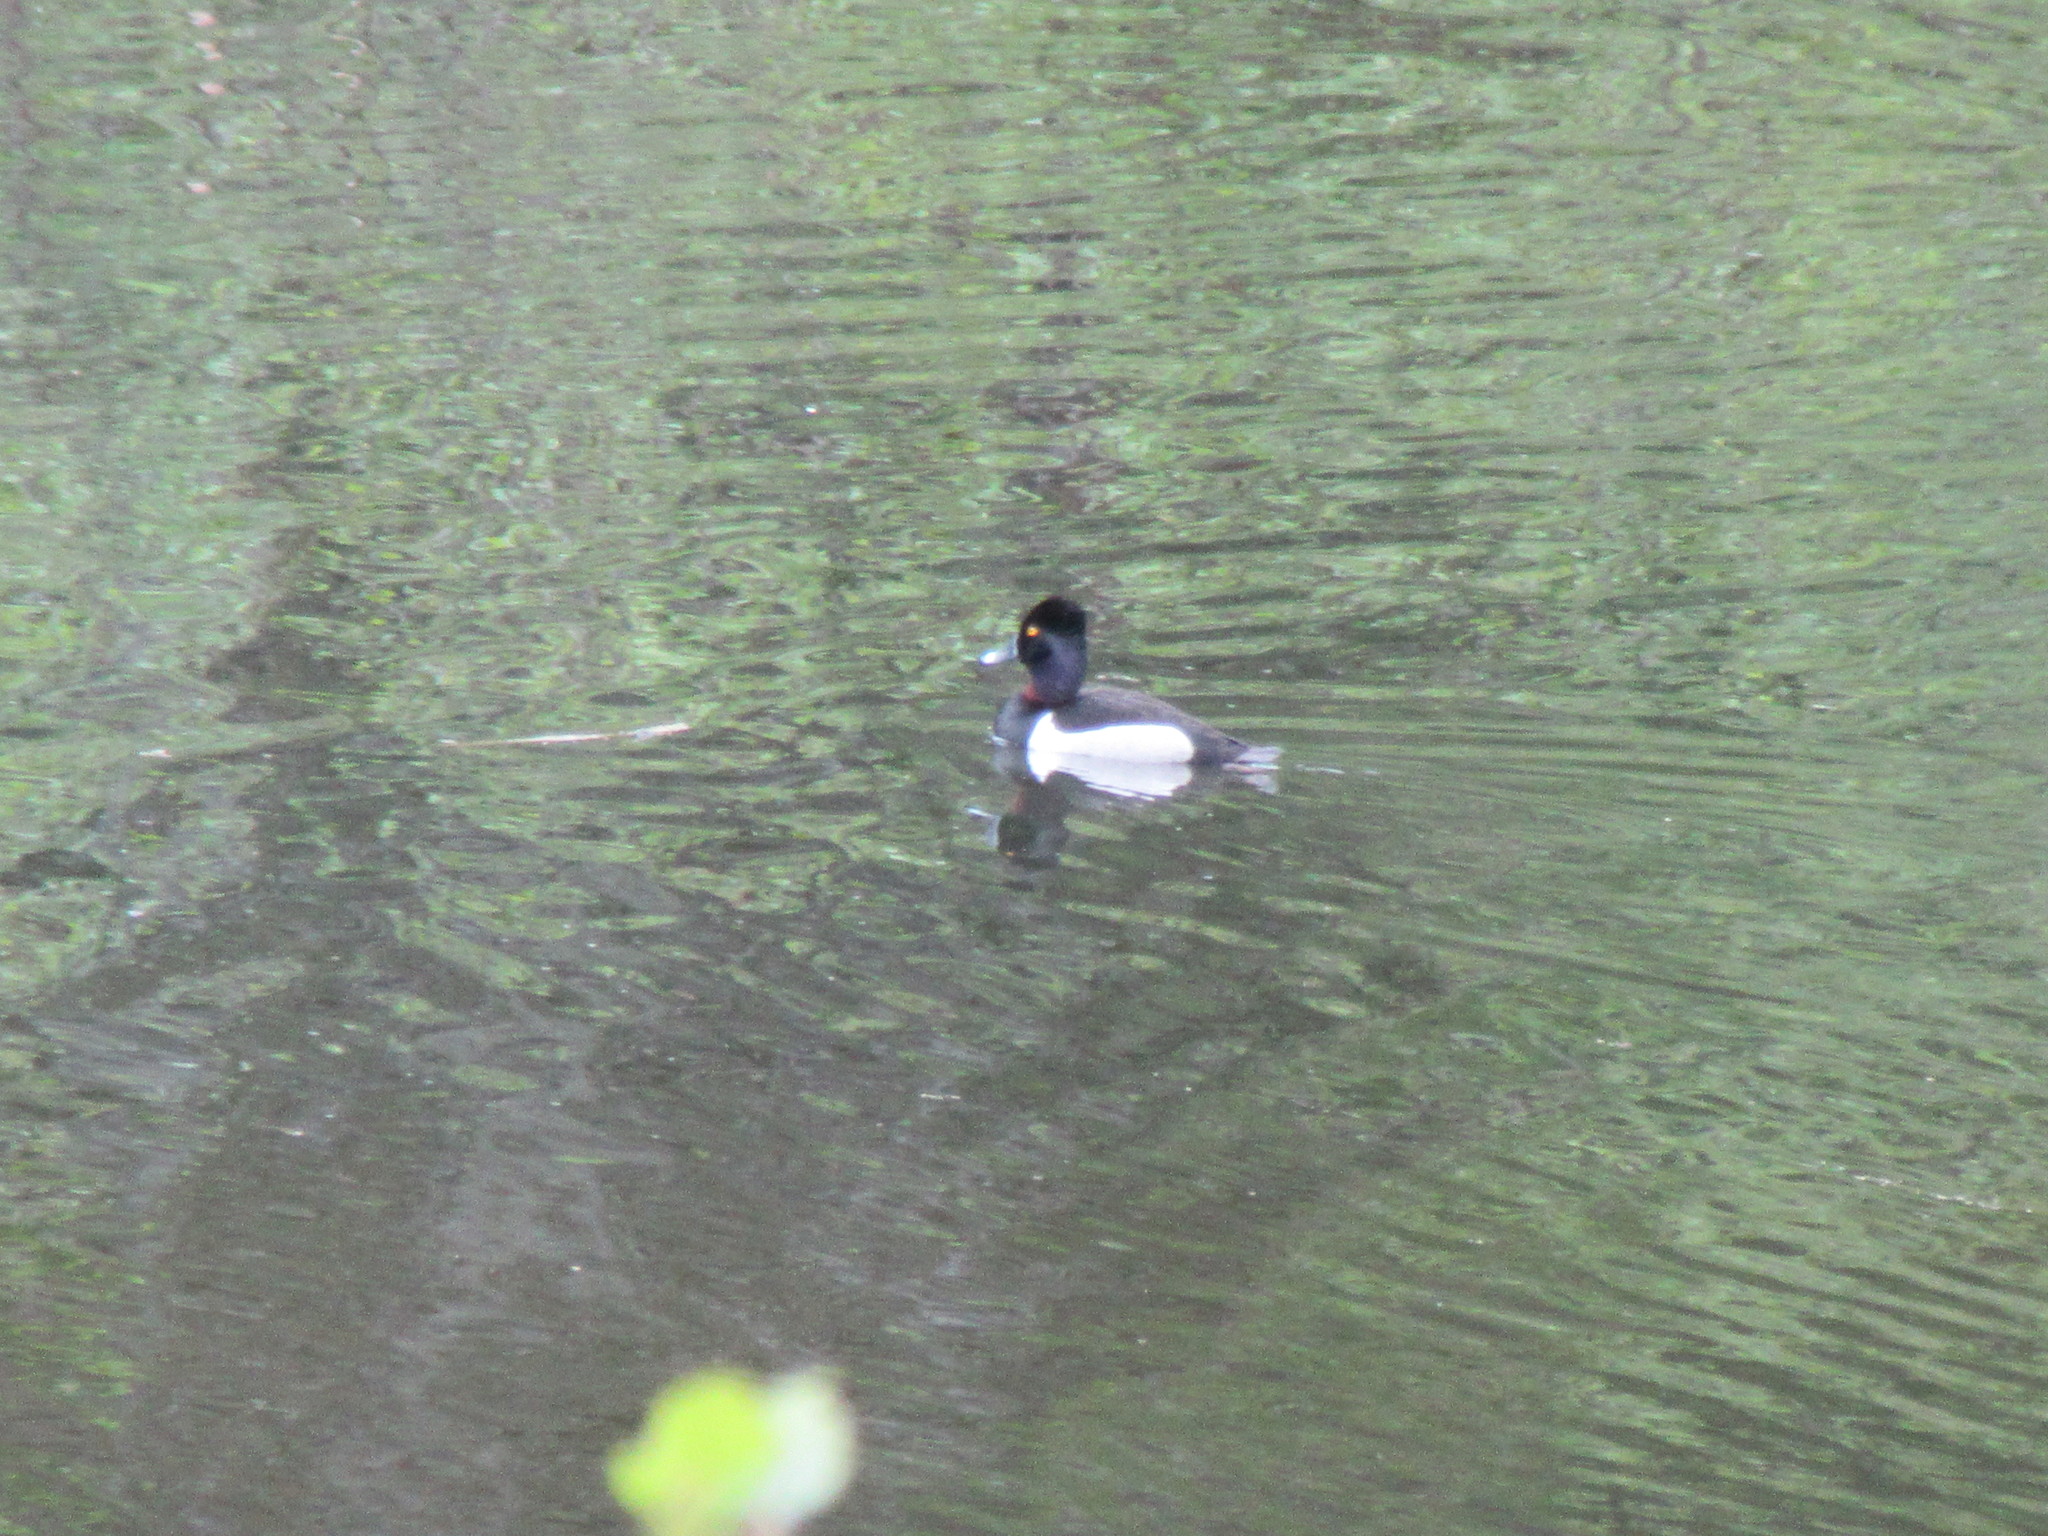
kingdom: Animalia
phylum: Chordata
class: Aves
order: Anseriformes
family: Anatidae
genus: Aythya
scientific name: Aythya collaris
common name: Ring-necked duck
